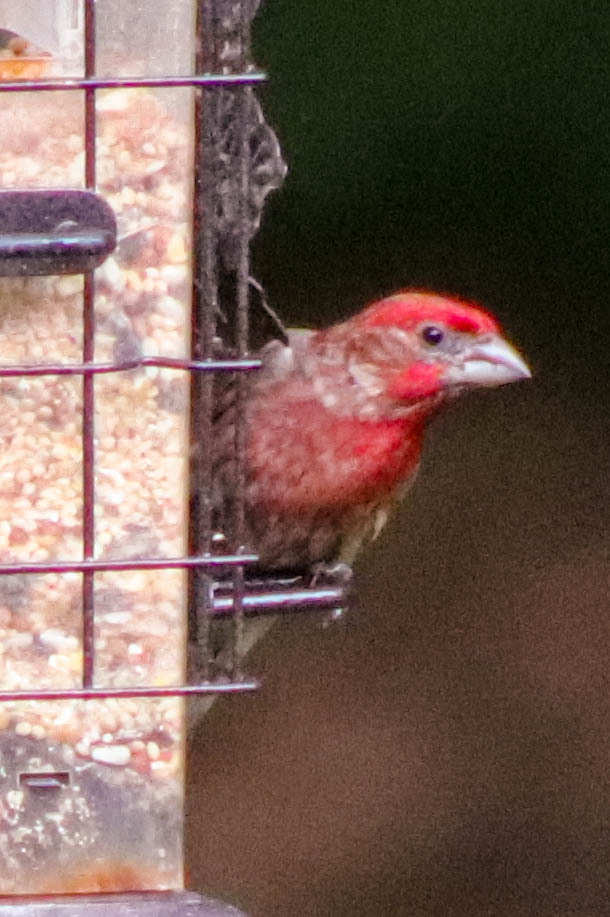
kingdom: Animalia
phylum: Chordata
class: Aves
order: Passeriformes
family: Fringillidae
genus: Haemorhous
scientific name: Haemorhous mexicanus
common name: House finch
